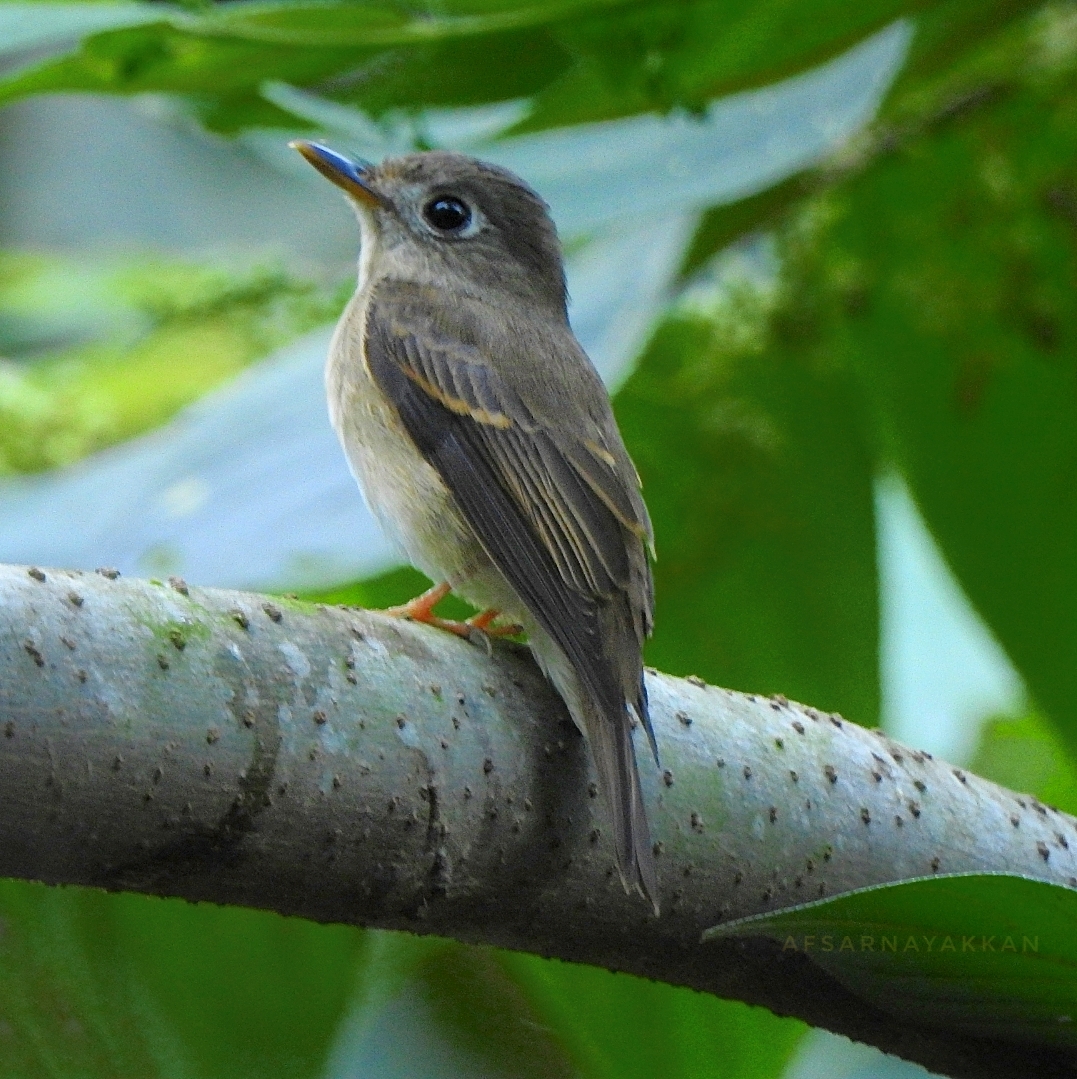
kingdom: Animalia
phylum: Chordata
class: Aves
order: Passeriformes
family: Muscicapidae
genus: Muscicapa
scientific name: Muscicapa muttui
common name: Brown-breasted flycatcher
